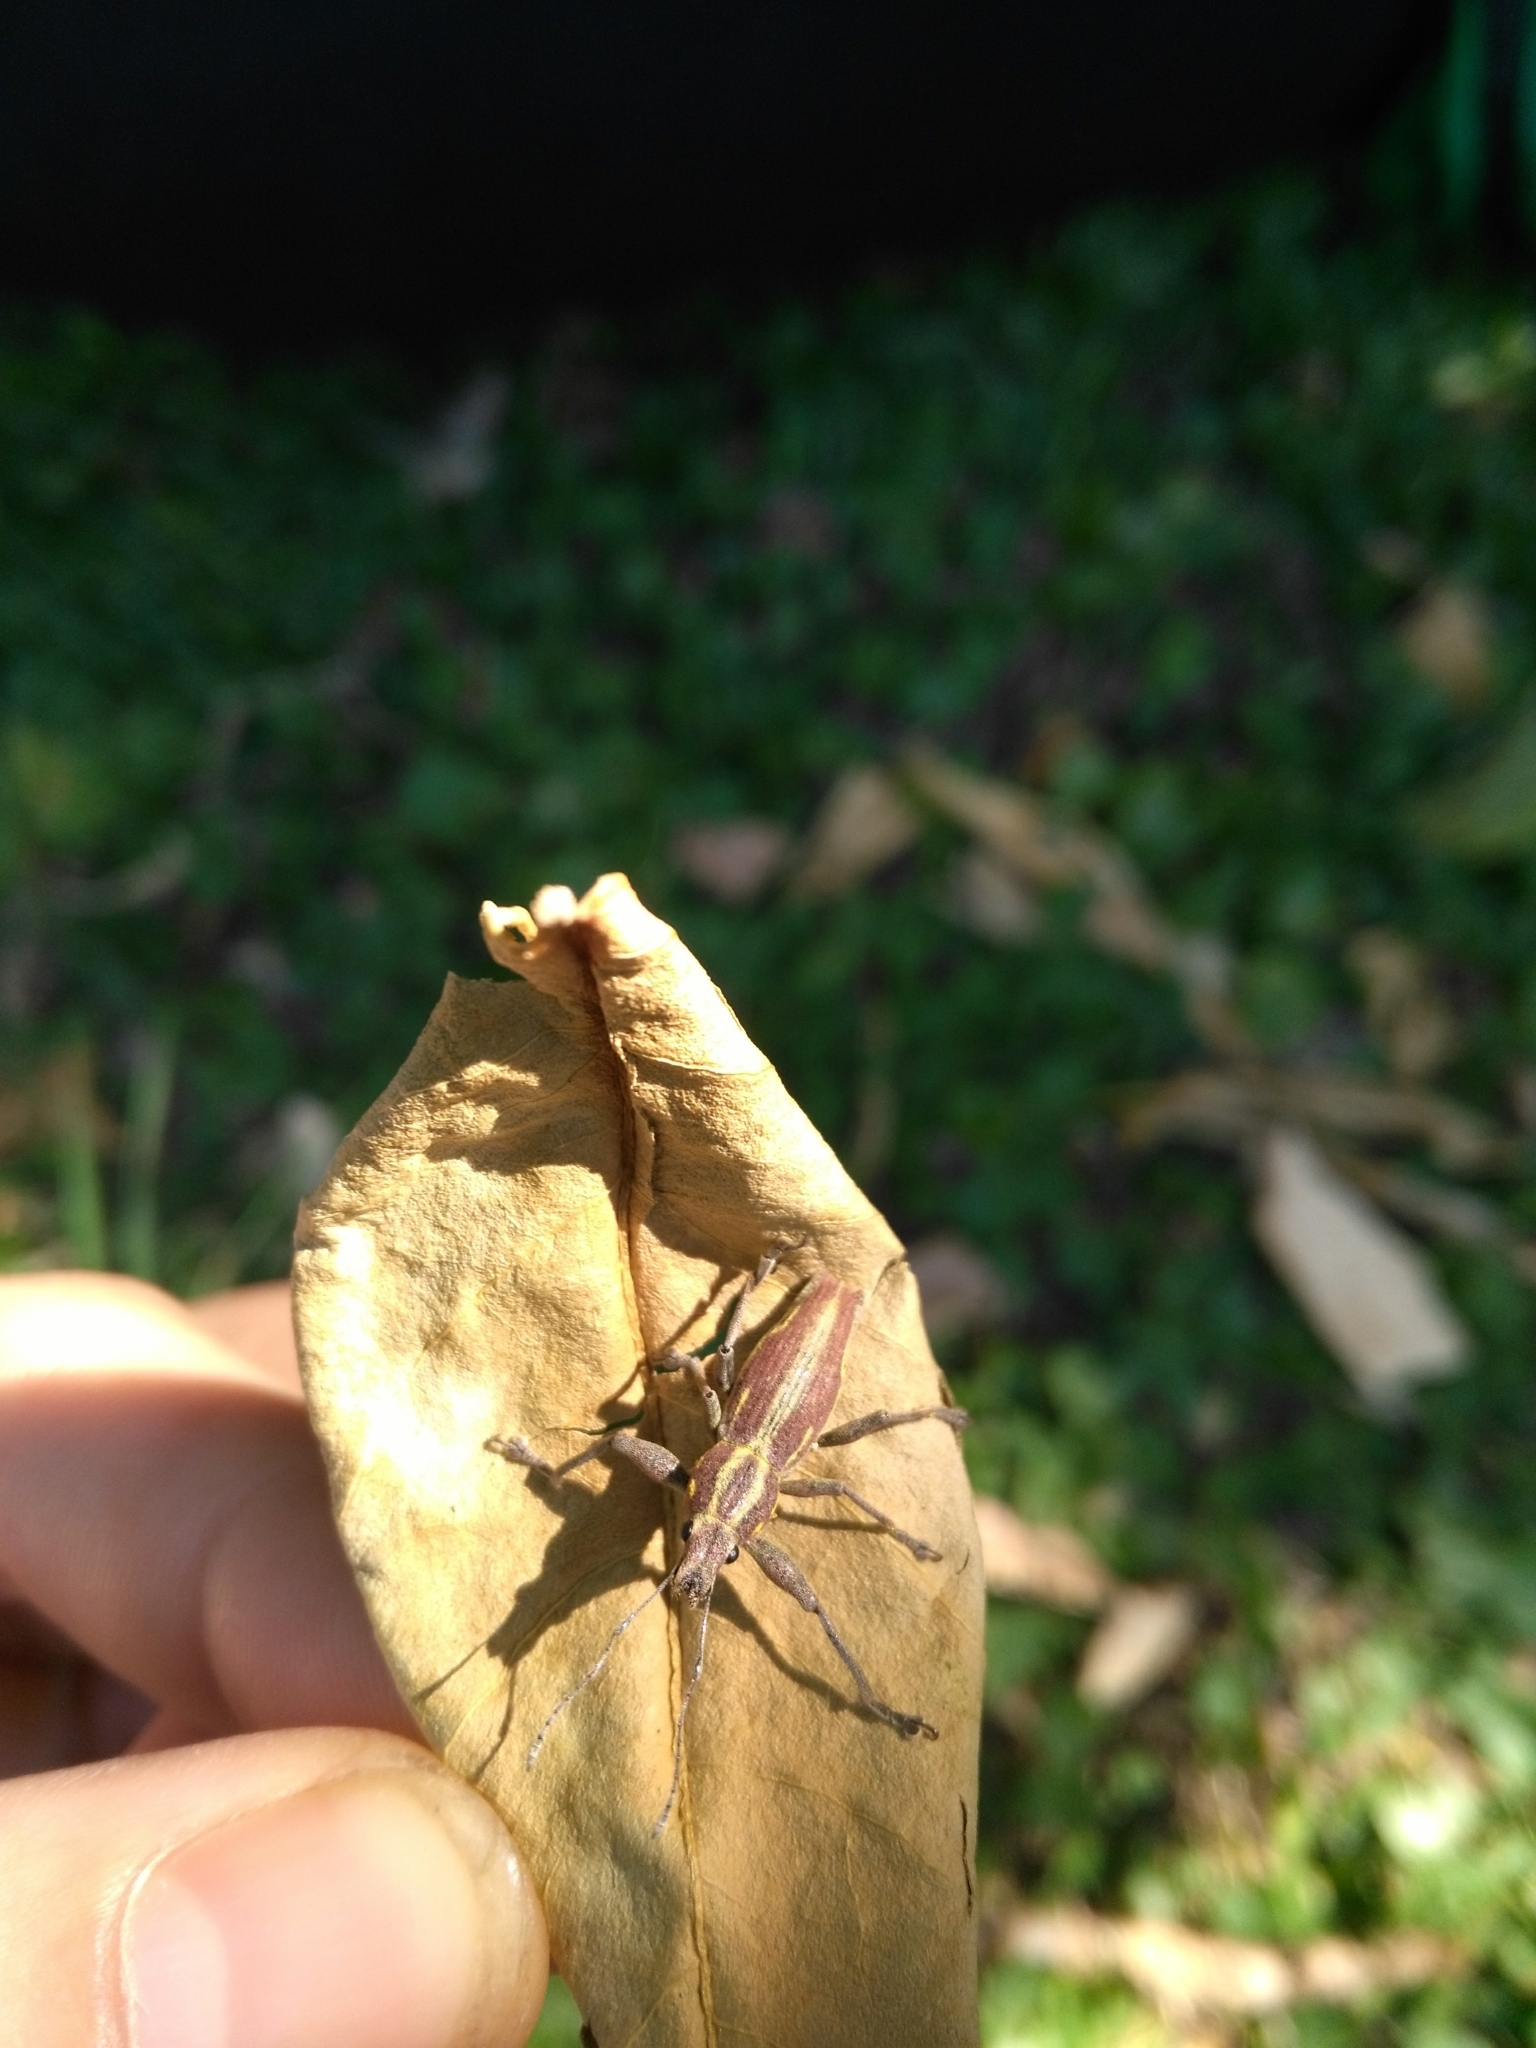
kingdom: Animalia
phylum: Arthropoda
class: Insecta
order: Coleoptera
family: Curculionidae
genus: Naupactus
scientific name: Naupactus xanthographus
